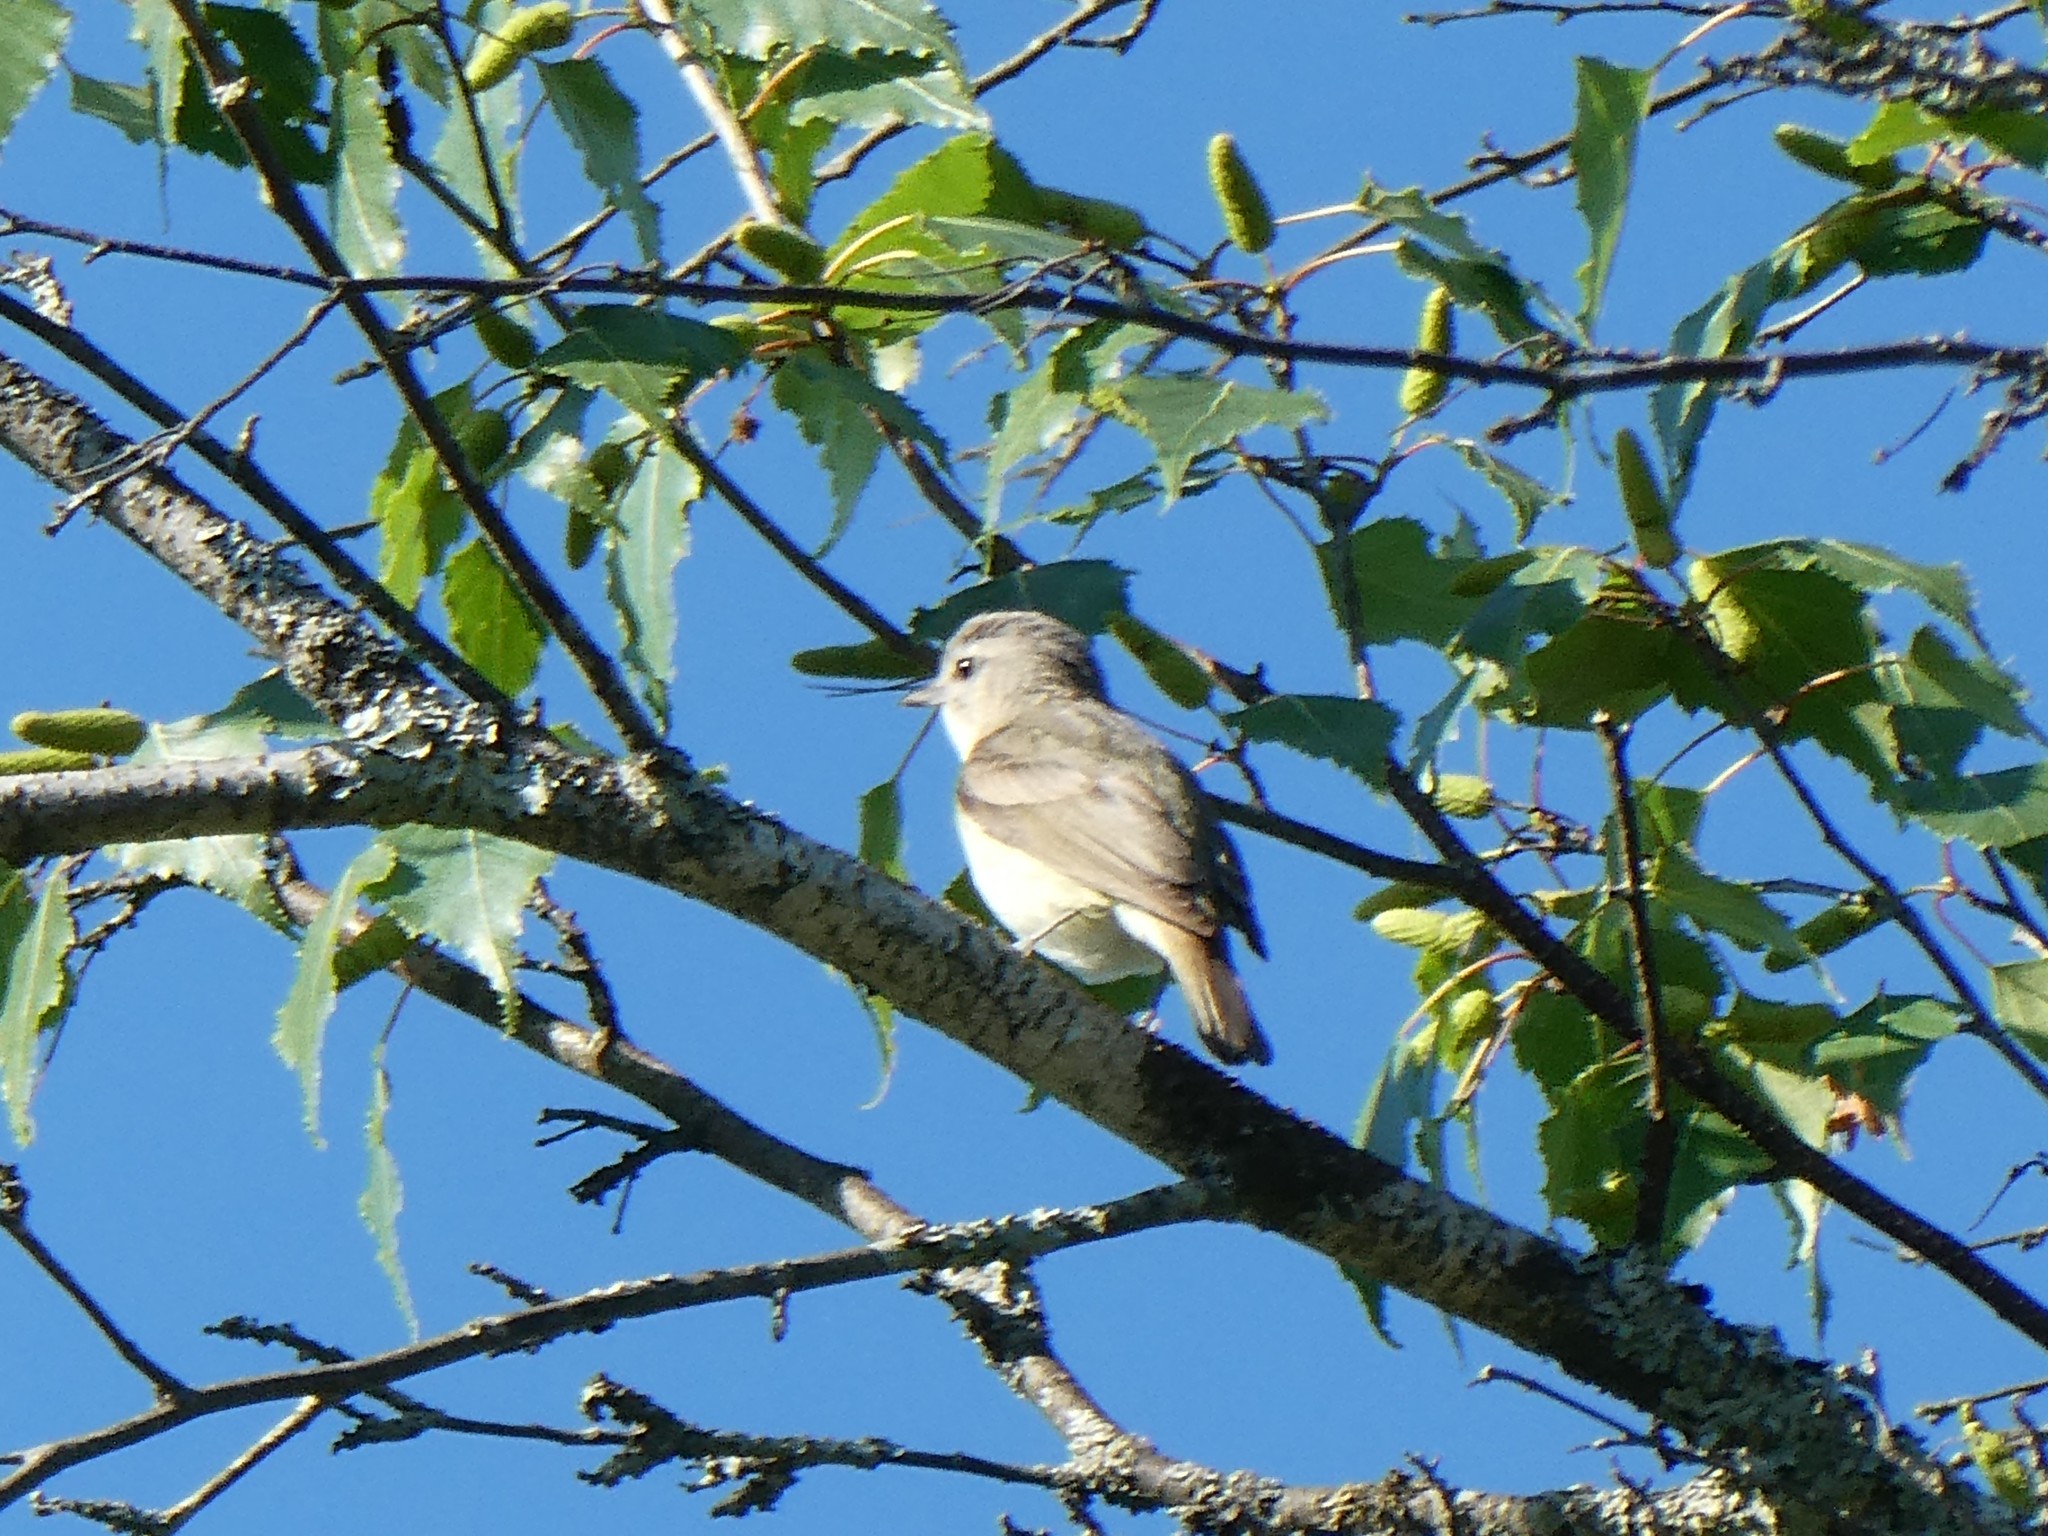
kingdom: Animalia
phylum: Chordata
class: Aves
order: Passeriformes
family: Vireonidae
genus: Vireo
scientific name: Vireo gilvus
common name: Warbling vireo
